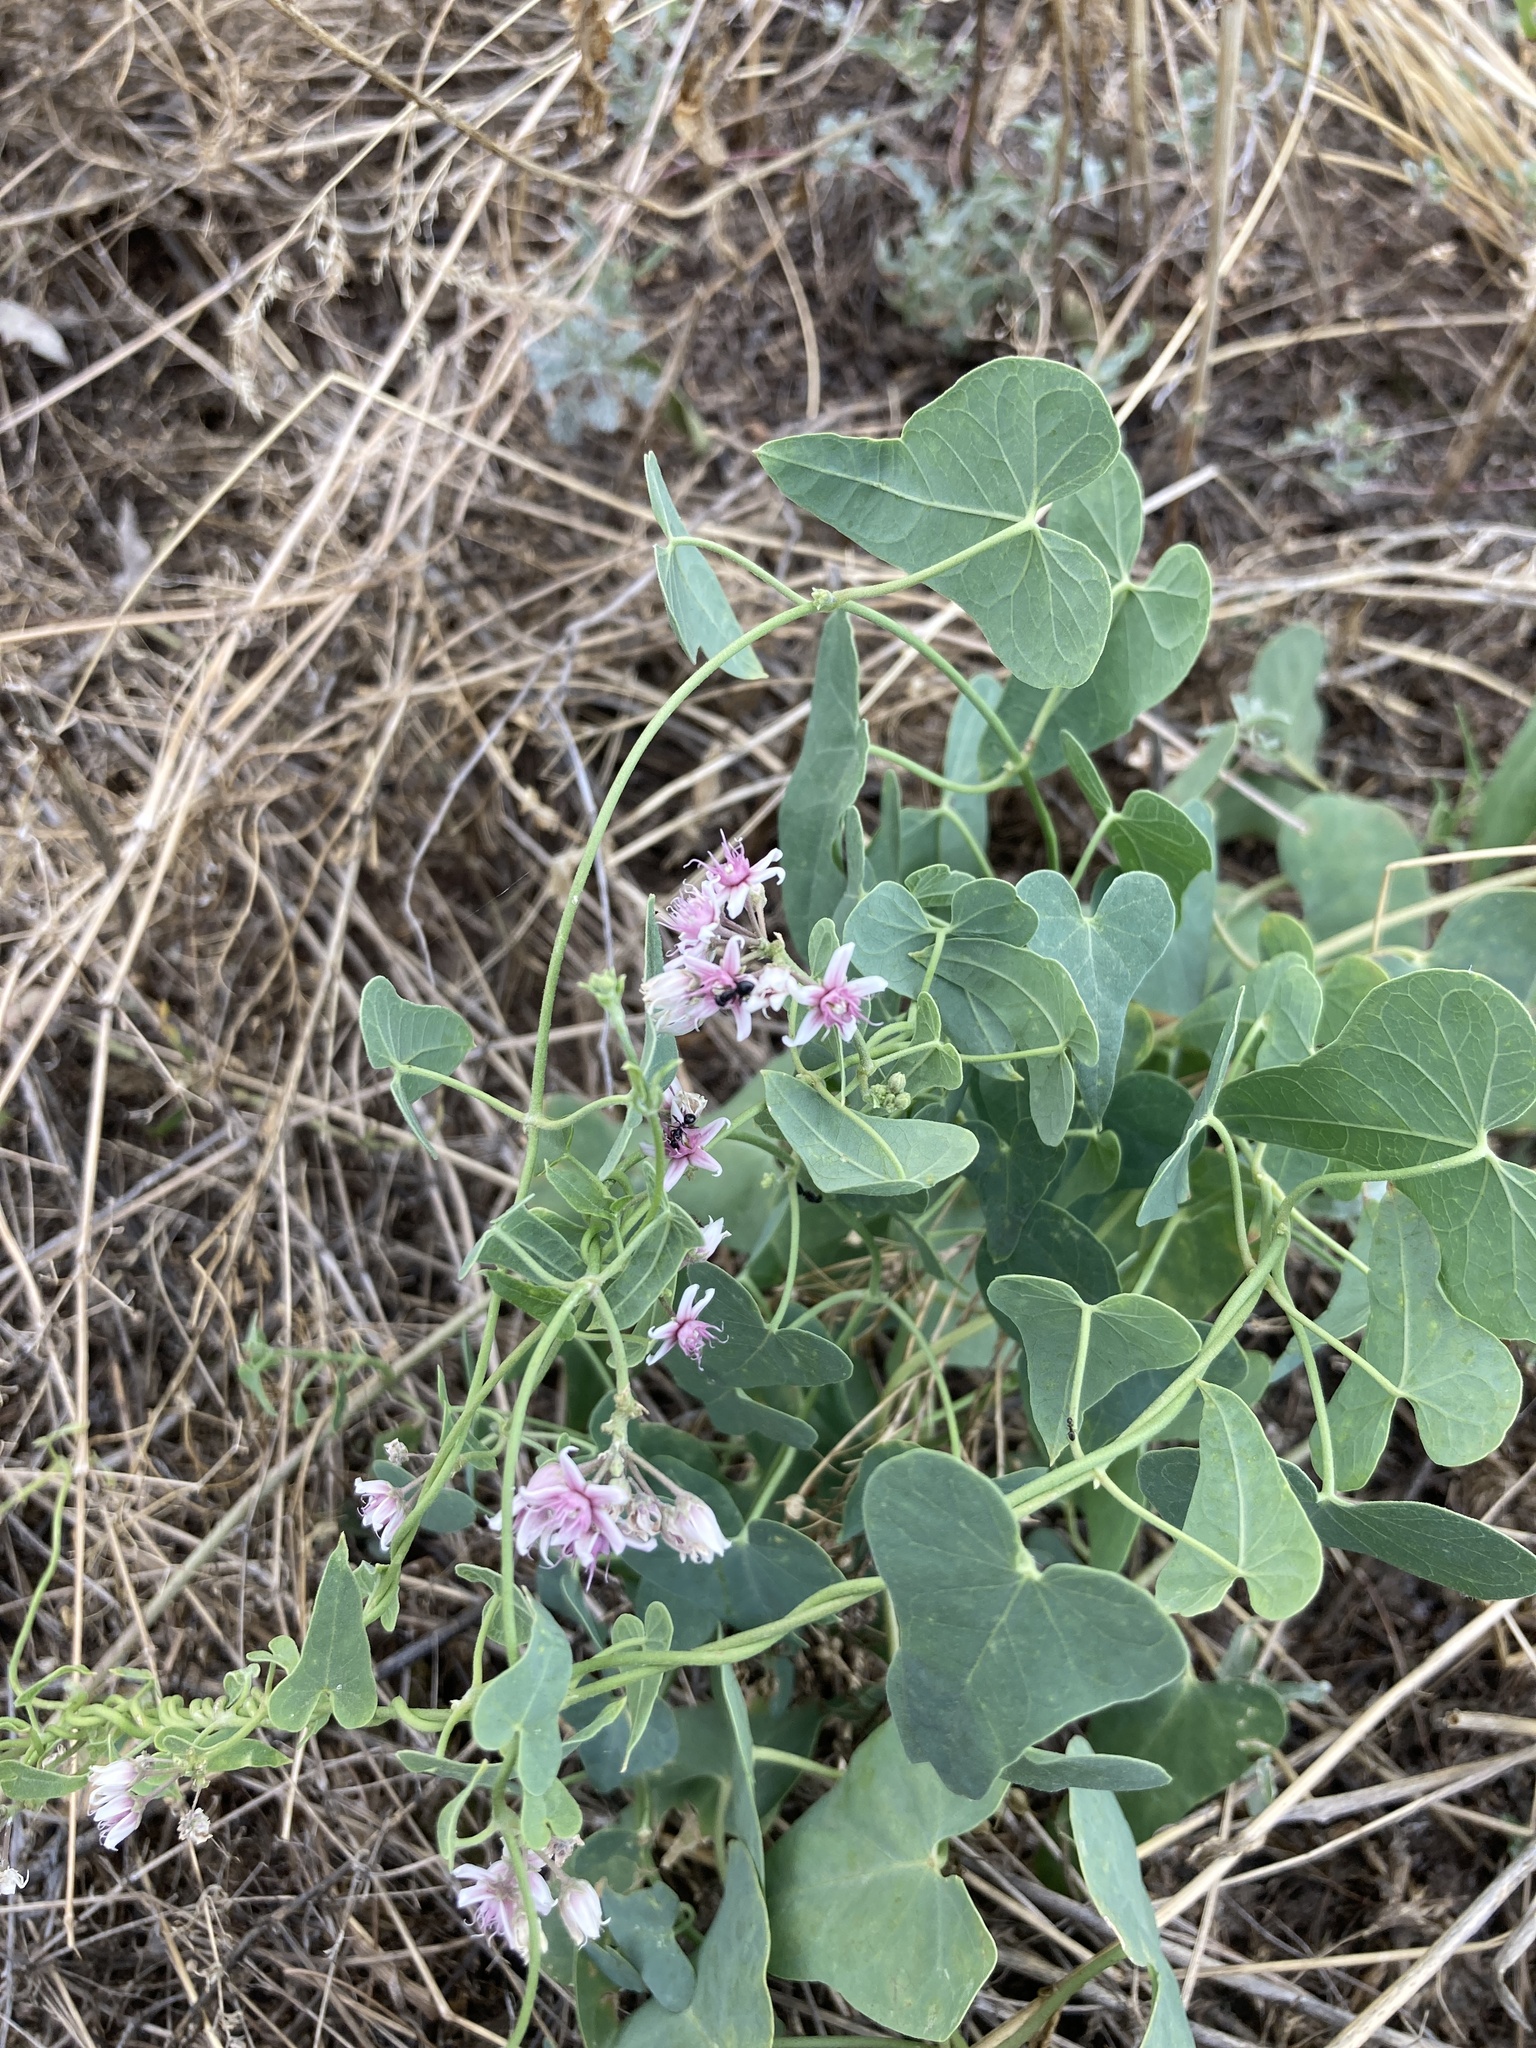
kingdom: Plantae
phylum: Tracheophyta
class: Magnoliopsida
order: Gentianales
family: Apocynaceae
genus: Cynanchum
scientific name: Cynanchum acutum
